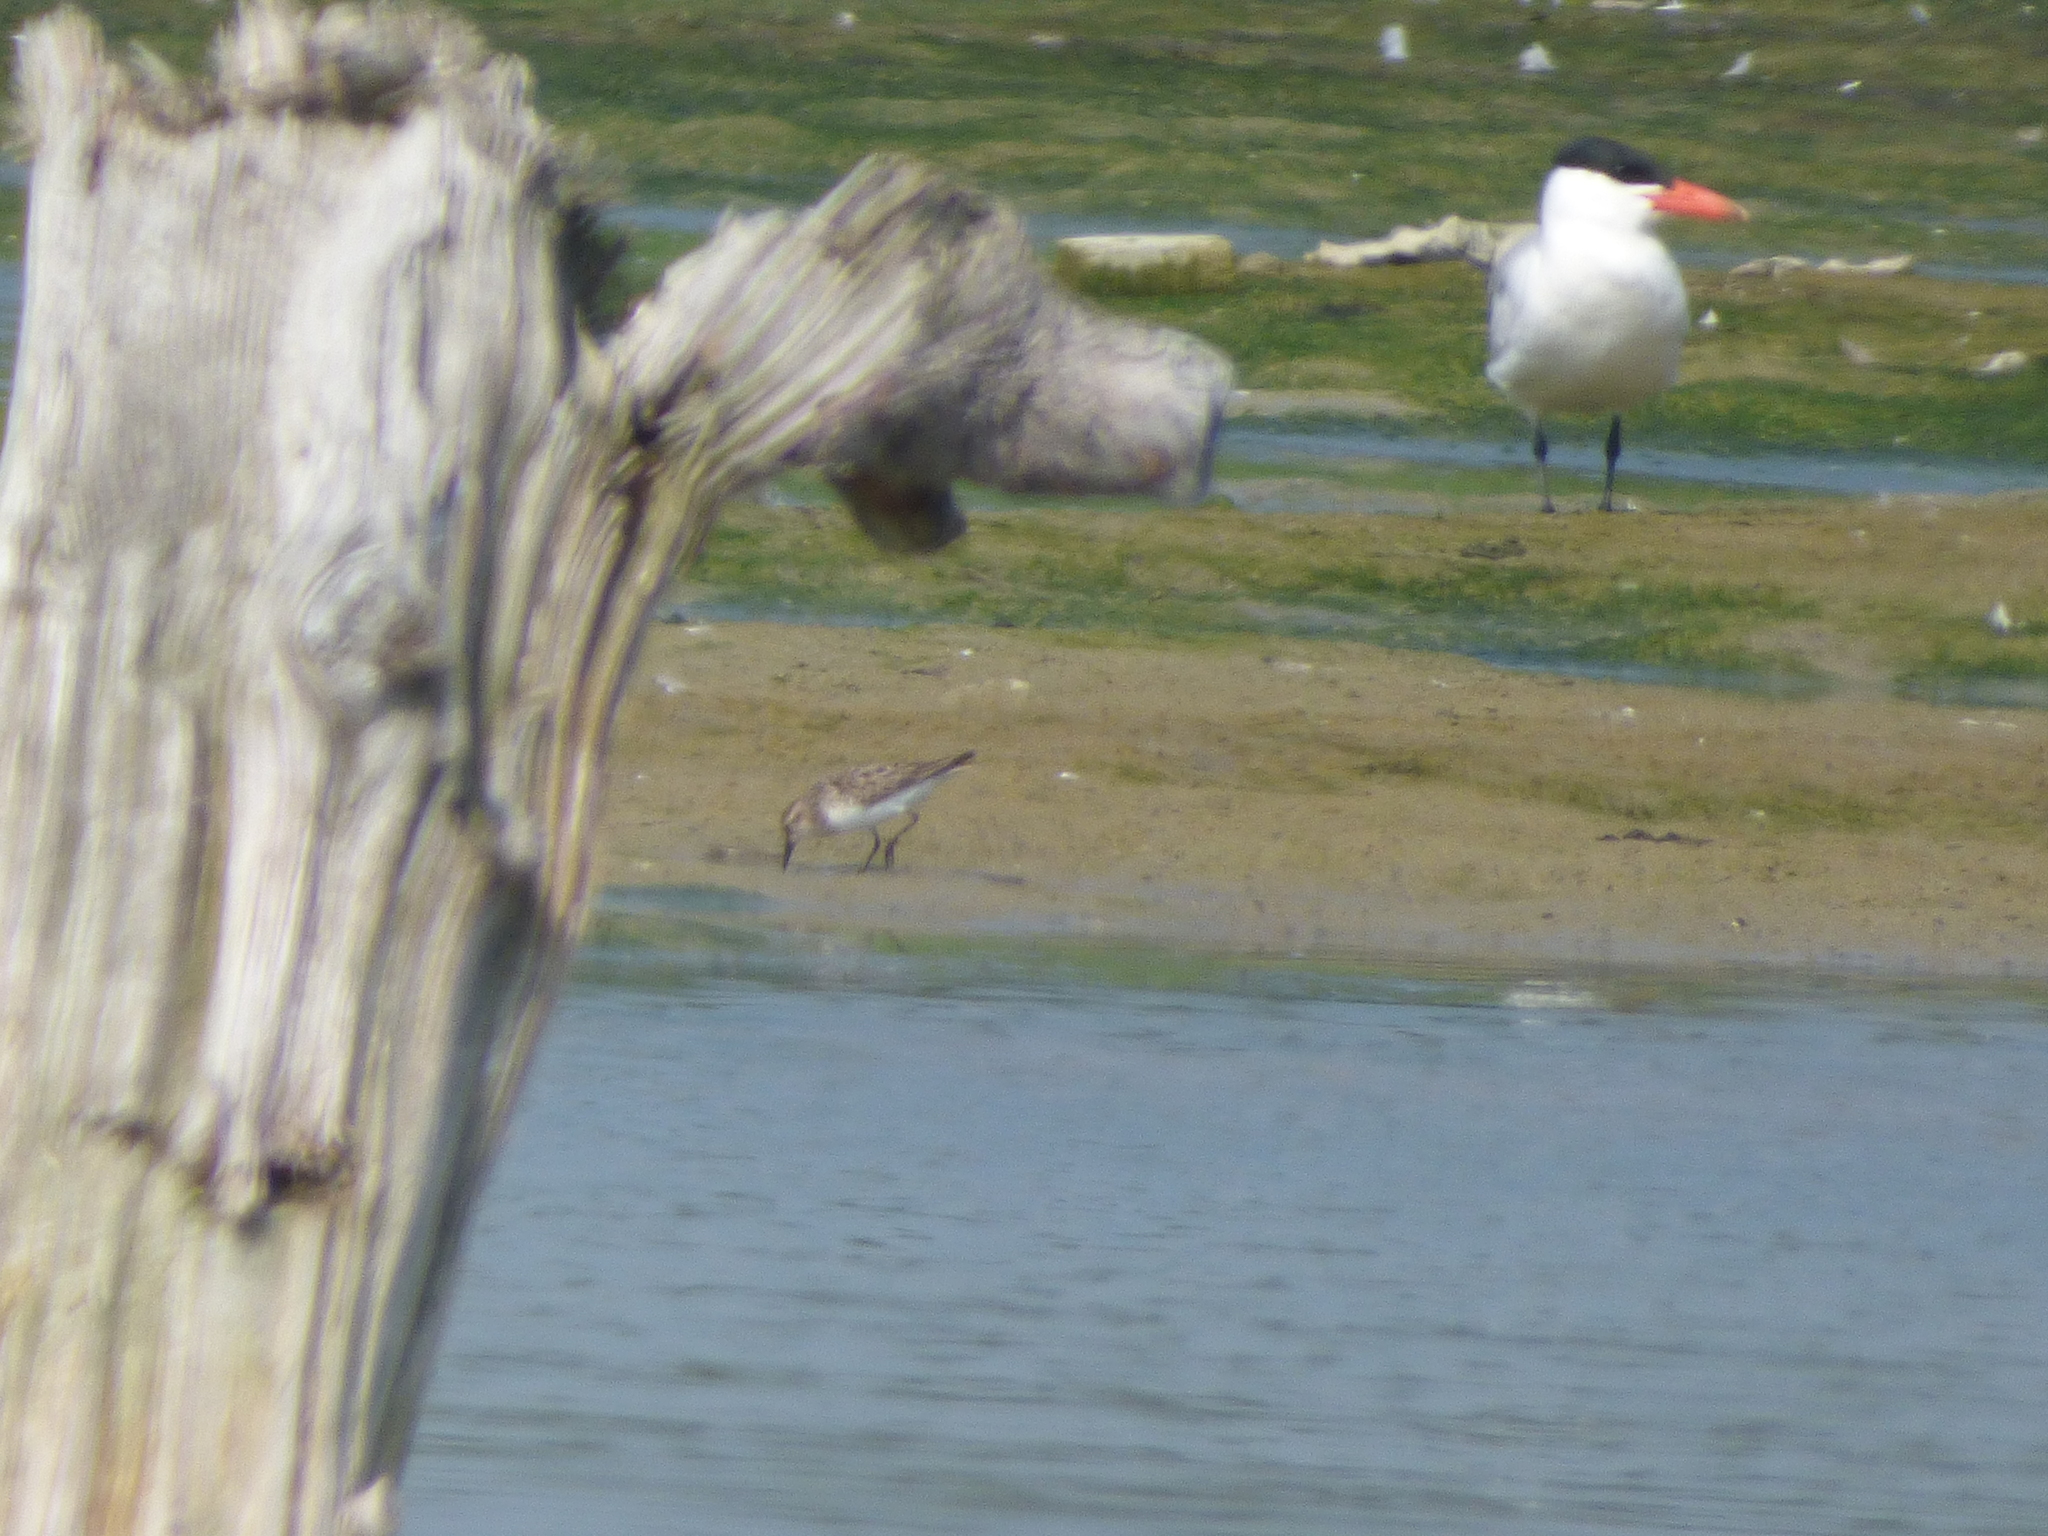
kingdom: Animalia
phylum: Chordata
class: Aves
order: Charadriiformes
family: Scolopacidae
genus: Calidris
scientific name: Calidris pusilla
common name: Semipalmated sandpiper
